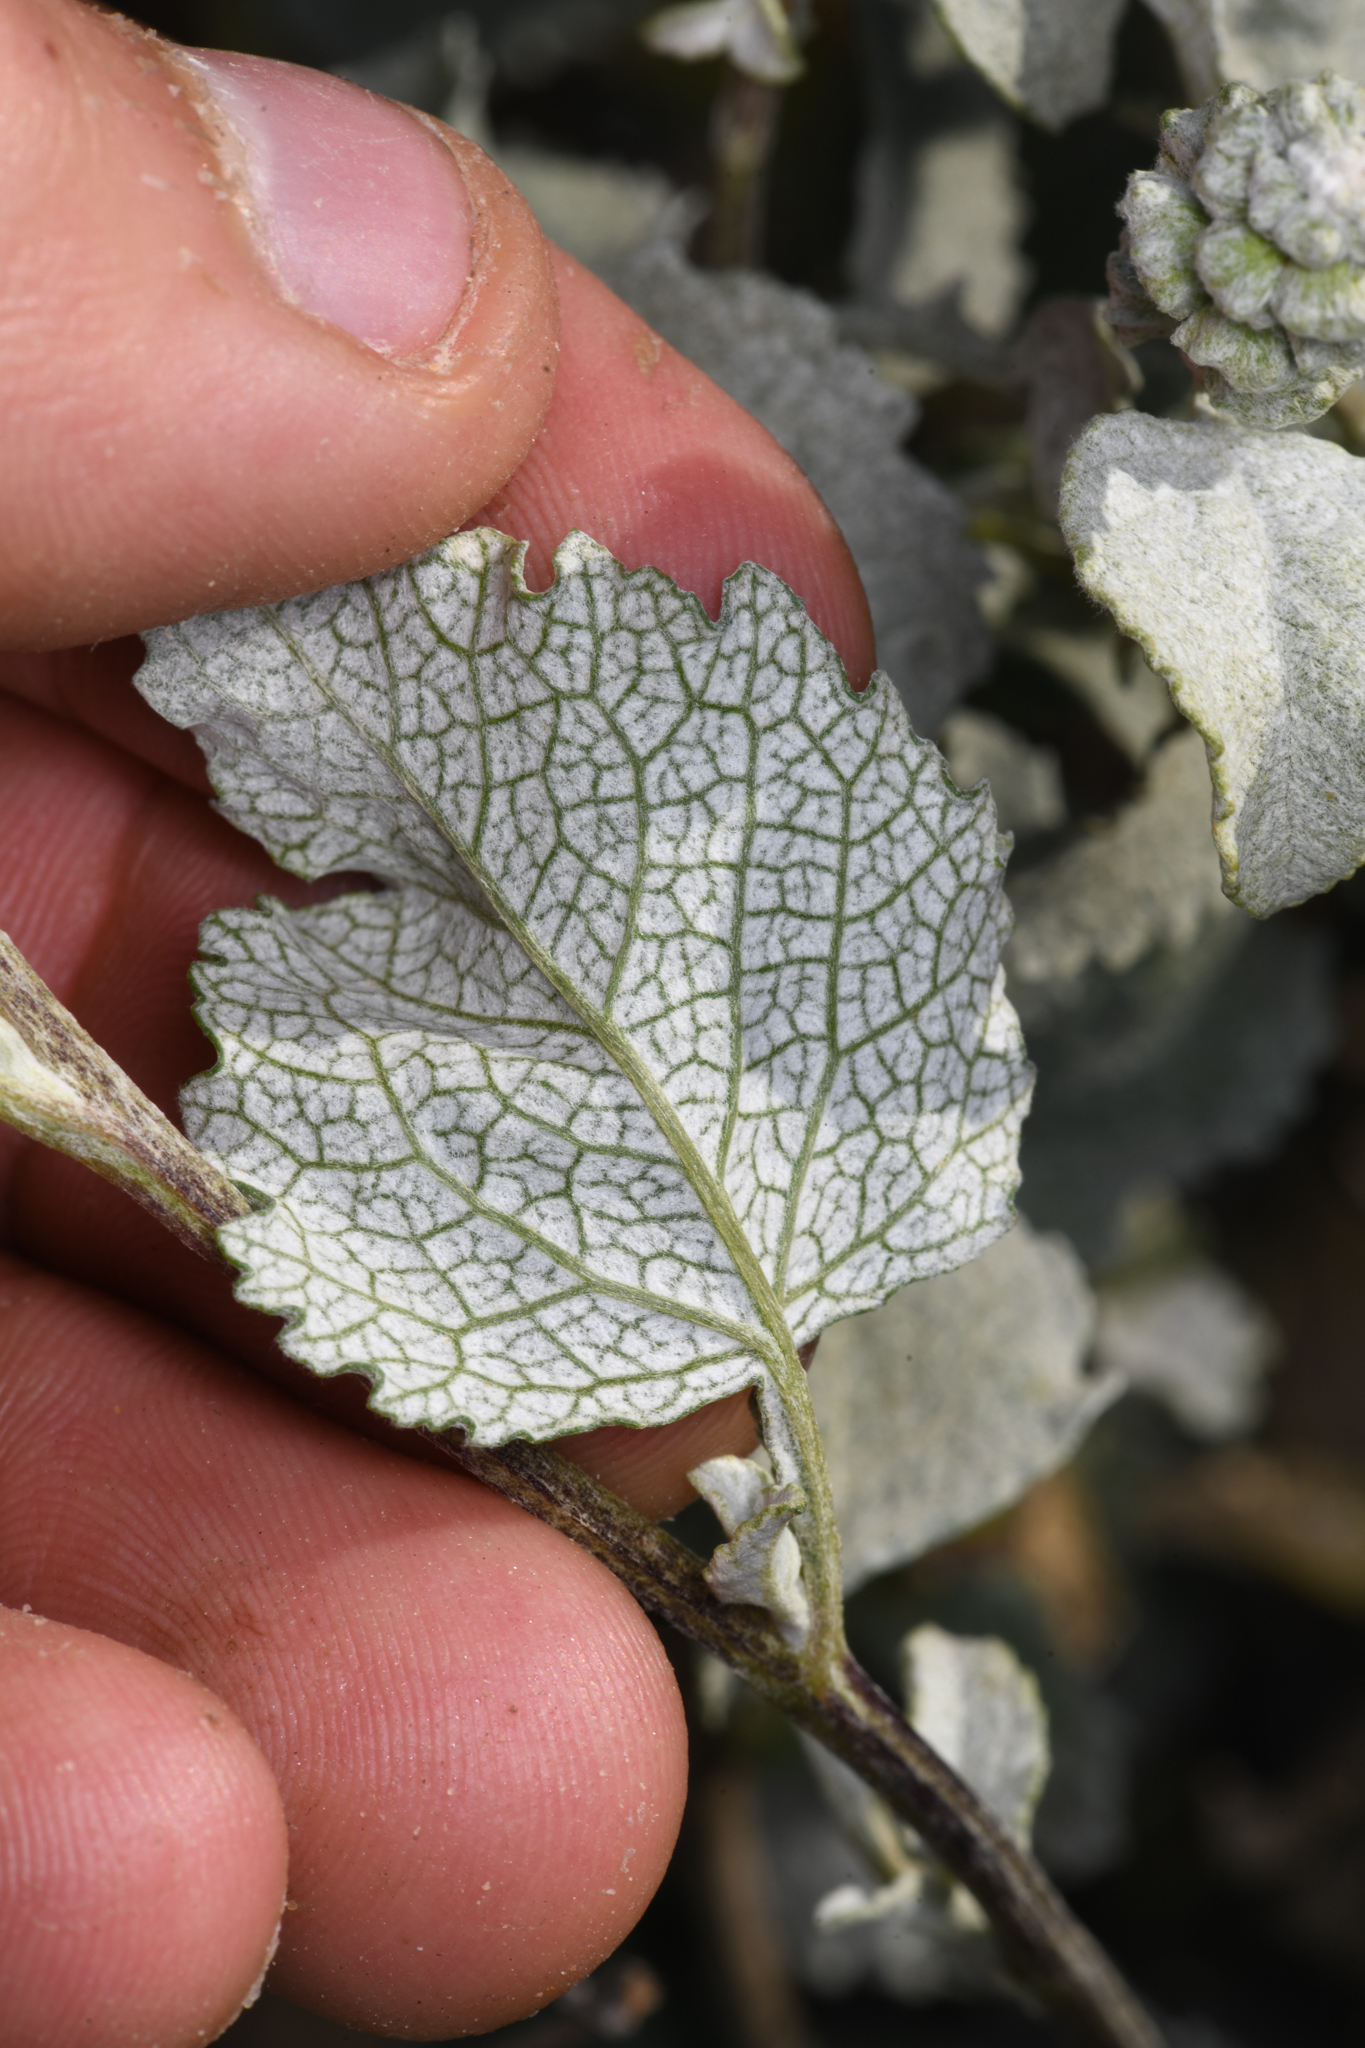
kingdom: Plantae
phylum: Tracheophyta
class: Magnoliopsida
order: Asterales
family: Asteraceae
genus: Ambrosia
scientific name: Ambrosia chenopodiifolia
